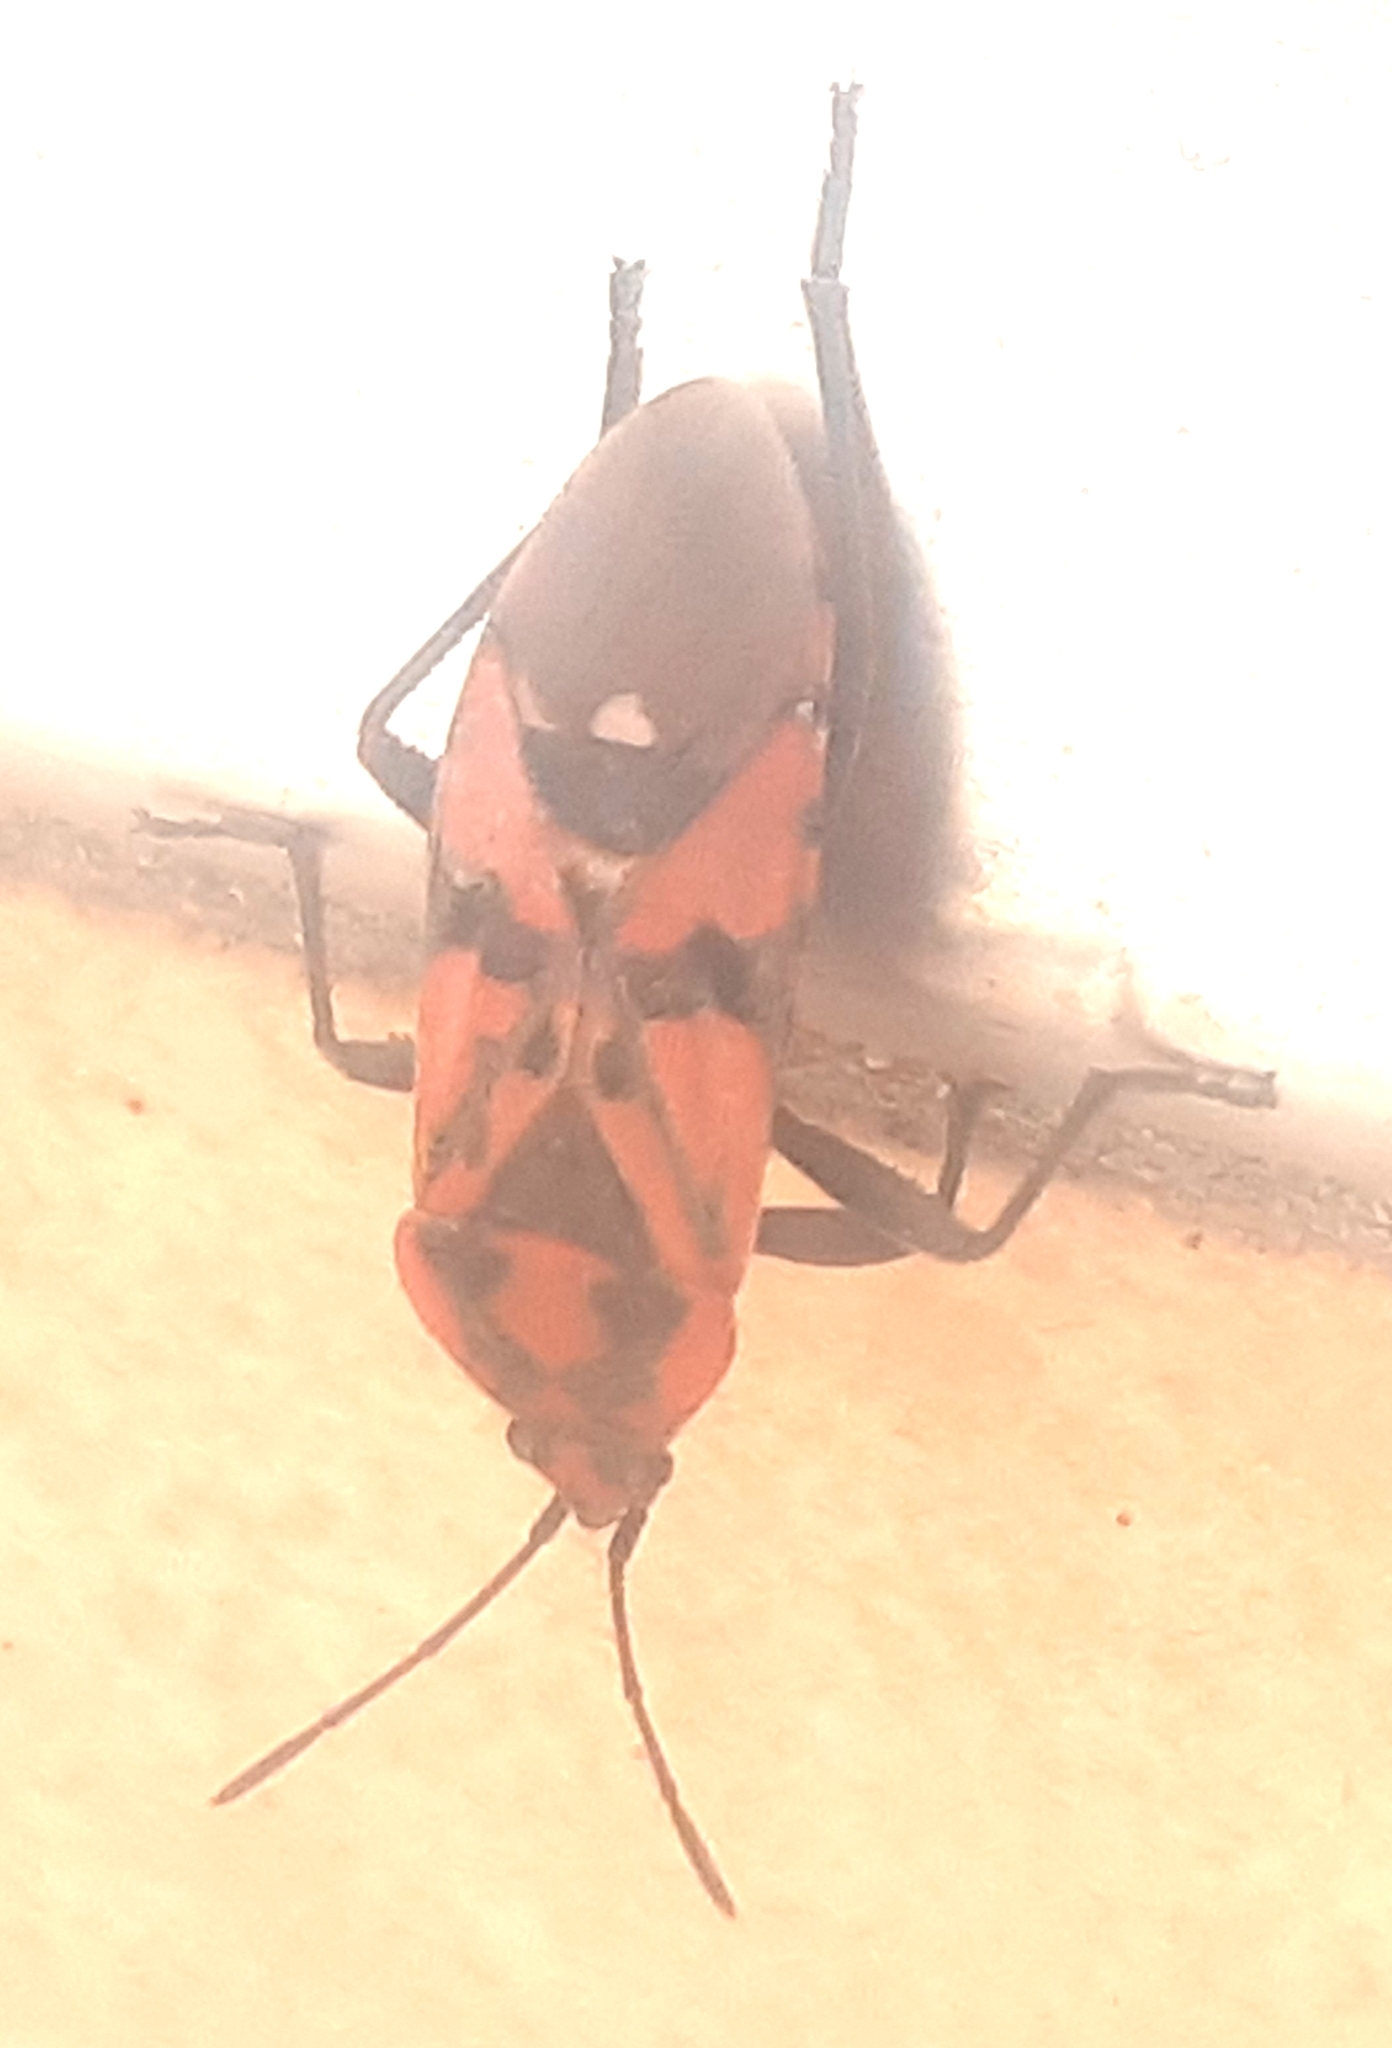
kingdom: Animalia
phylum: Arthropoda
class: Insecta
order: Hemiptera
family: Lygaeidae
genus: Spilostethus
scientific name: Spilostethus pandurus
